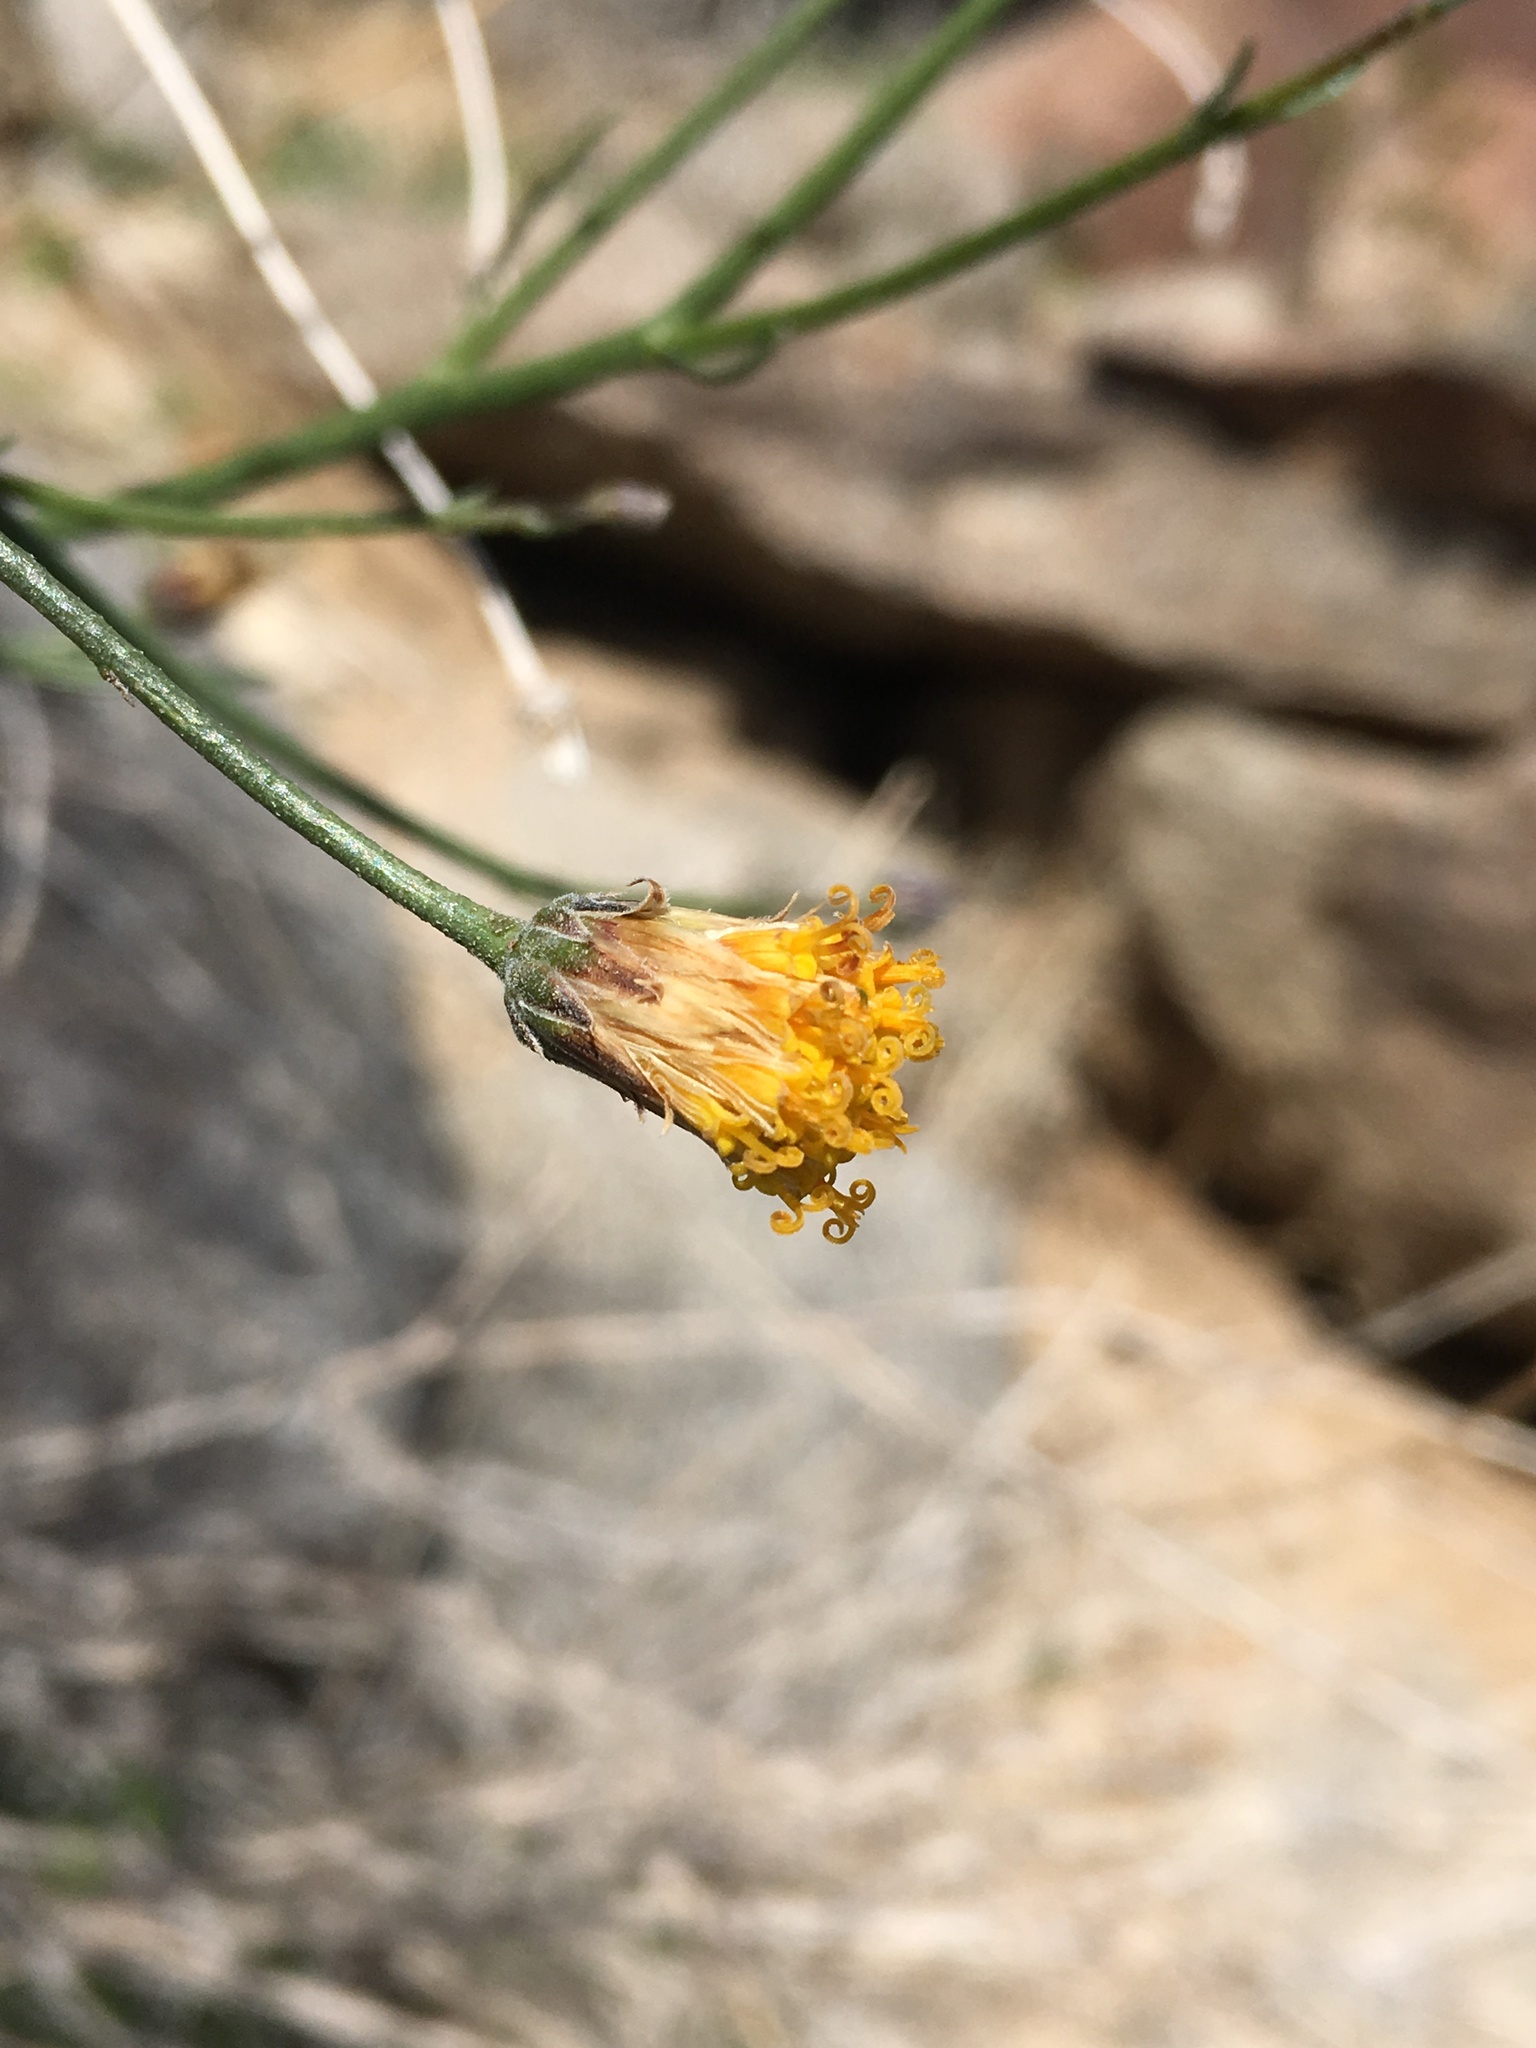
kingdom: Plantae
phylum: Tracheophyta
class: Magnoliopsida
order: Asterales
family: Asteraceae
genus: Bebbia
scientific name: Bebbia juncea
